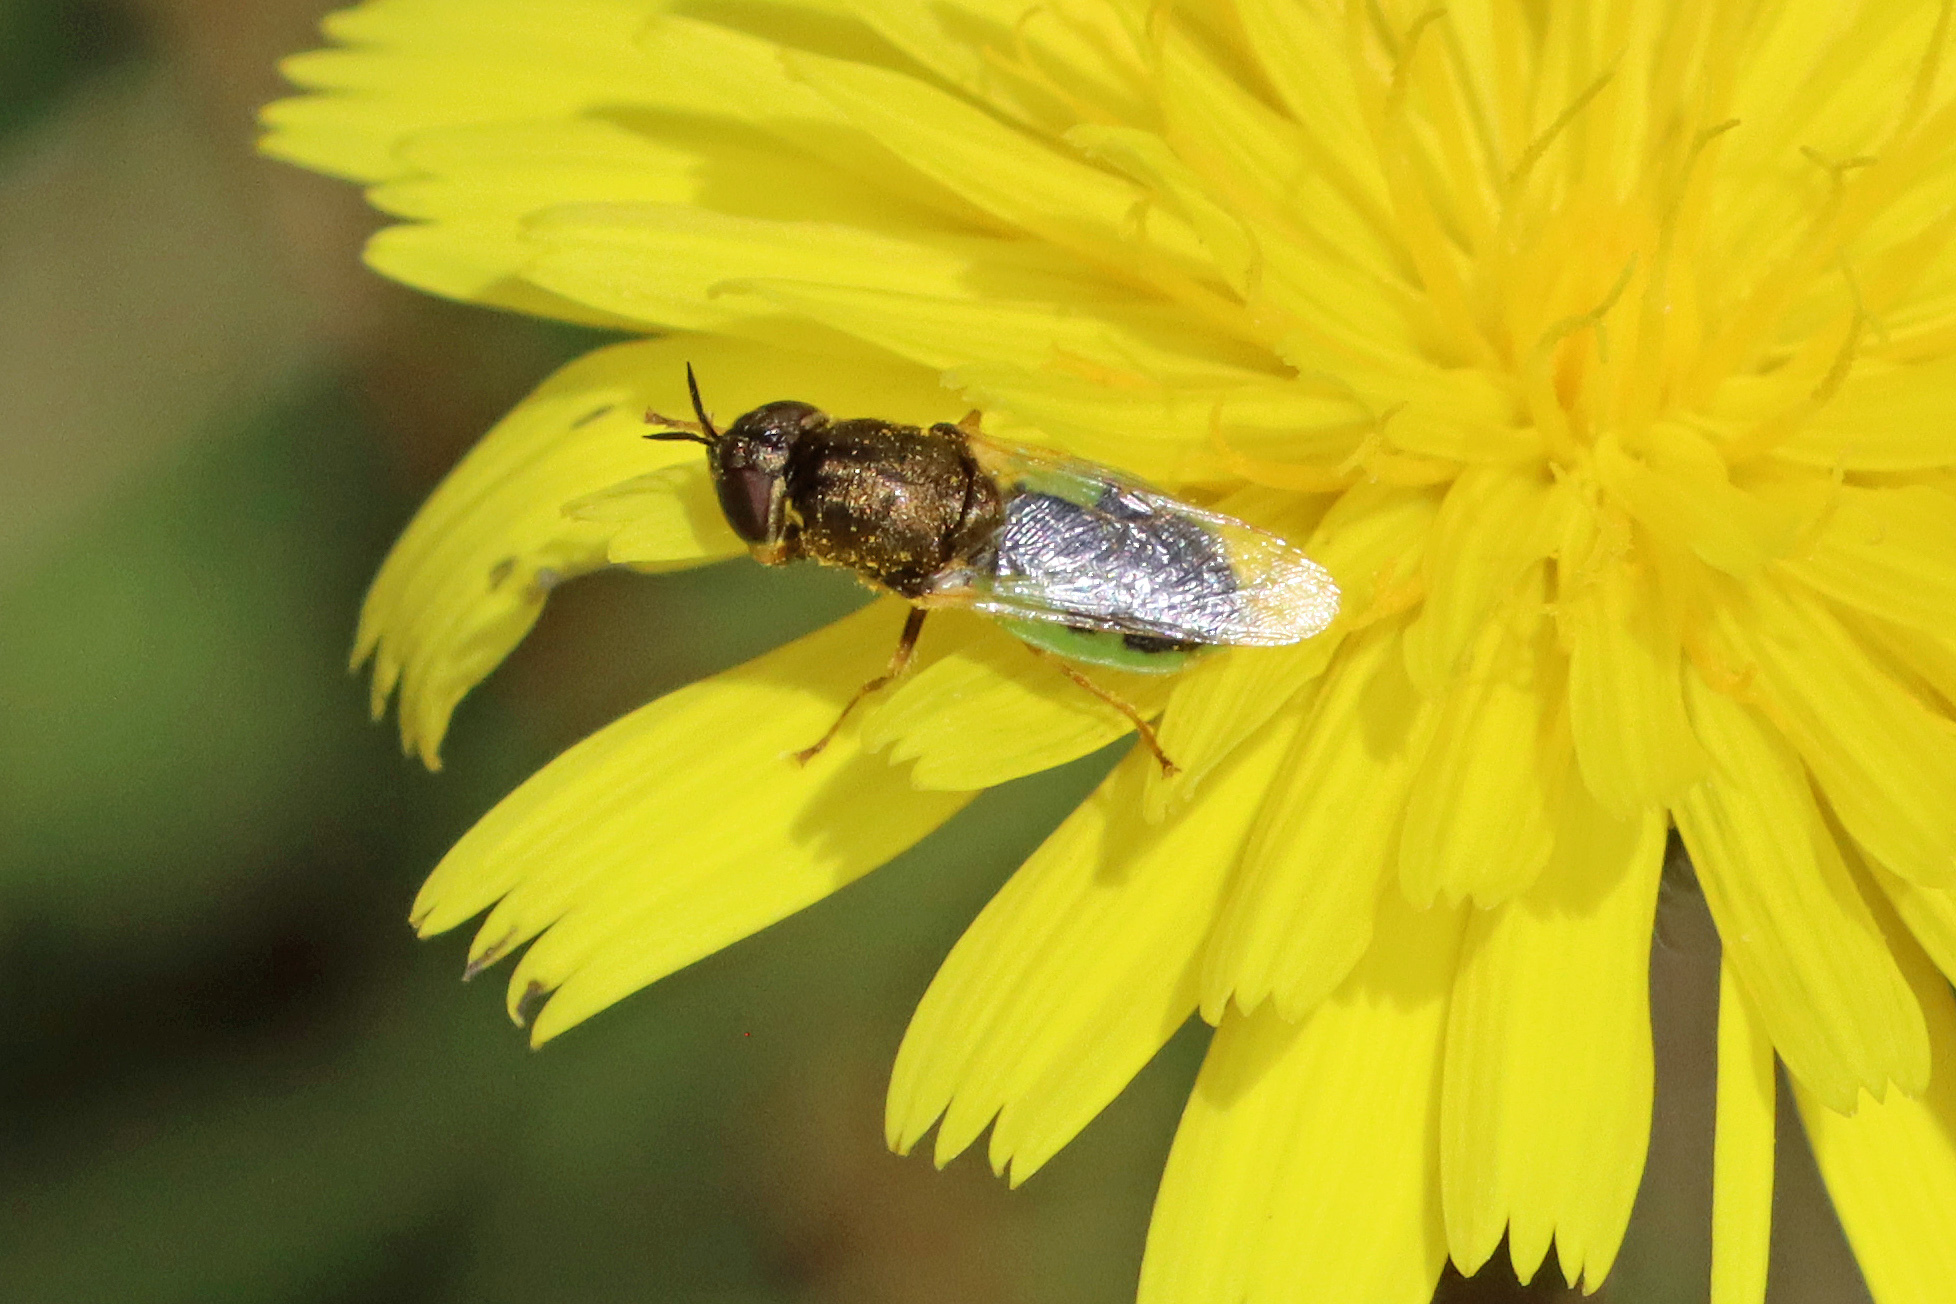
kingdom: Animalia
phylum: Arthropoda
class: Insecta
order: Diptera
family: Stratiomyidae
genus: Oplodontha
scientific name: Oplodontha viridula
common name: Common green colonel
